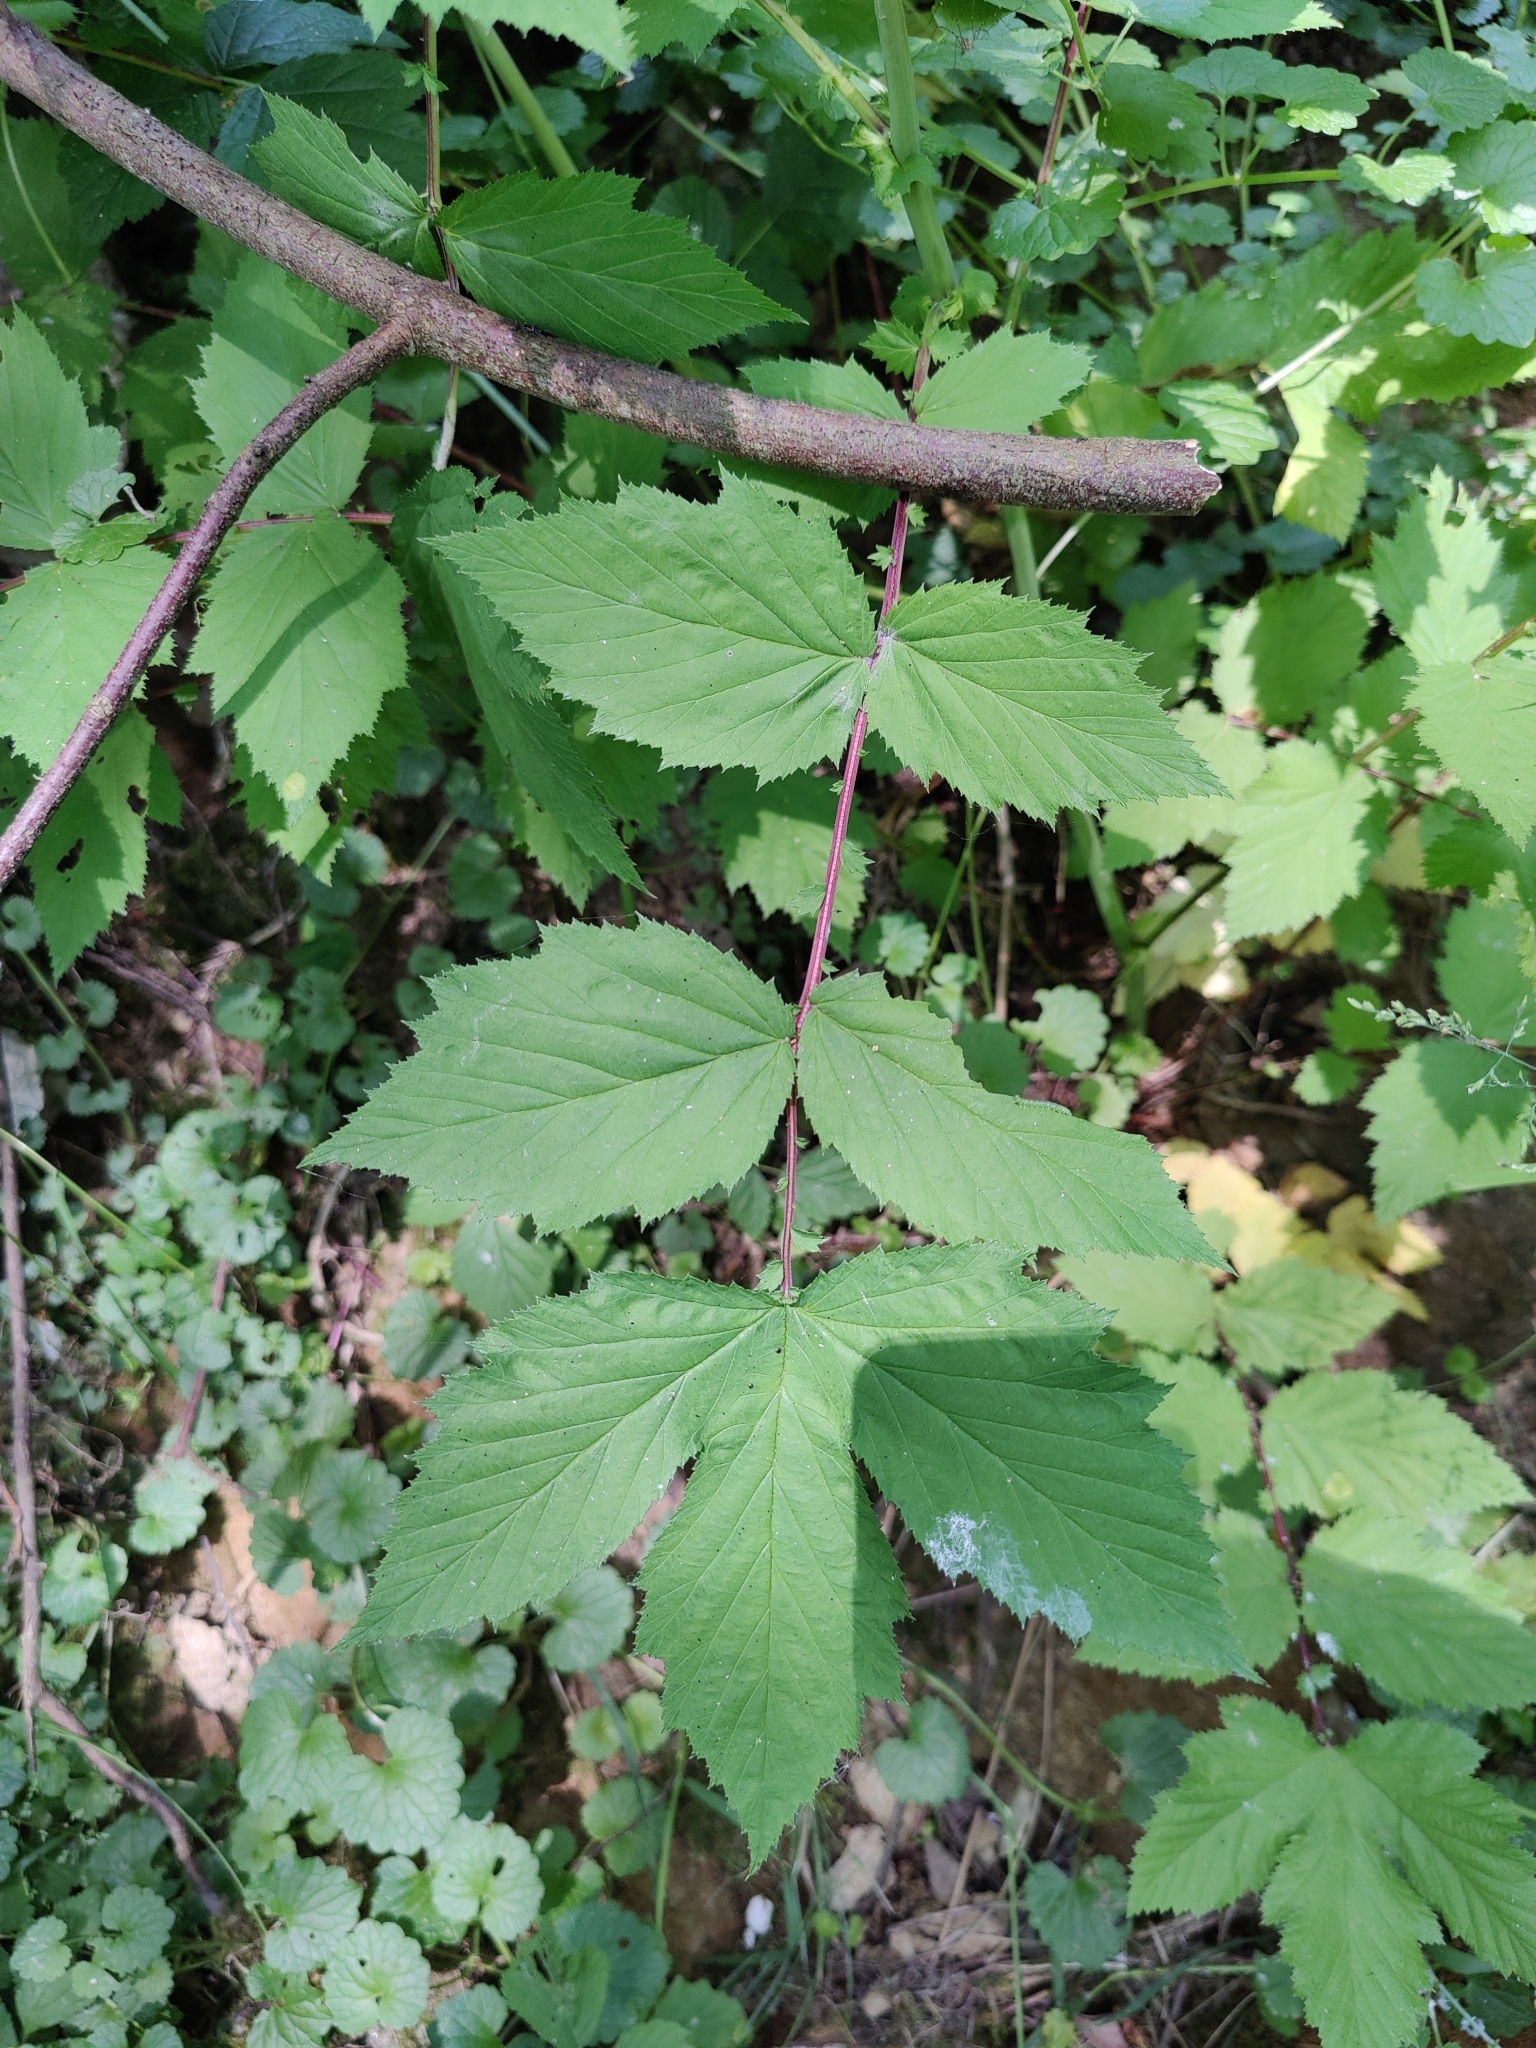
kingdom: Plantae
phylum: Tracheophyta
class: Magnoliopsida
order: Rosales
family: Rosaceae
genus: Filipendula
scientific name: Filipendula ulmaria
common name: Meadowsweet
